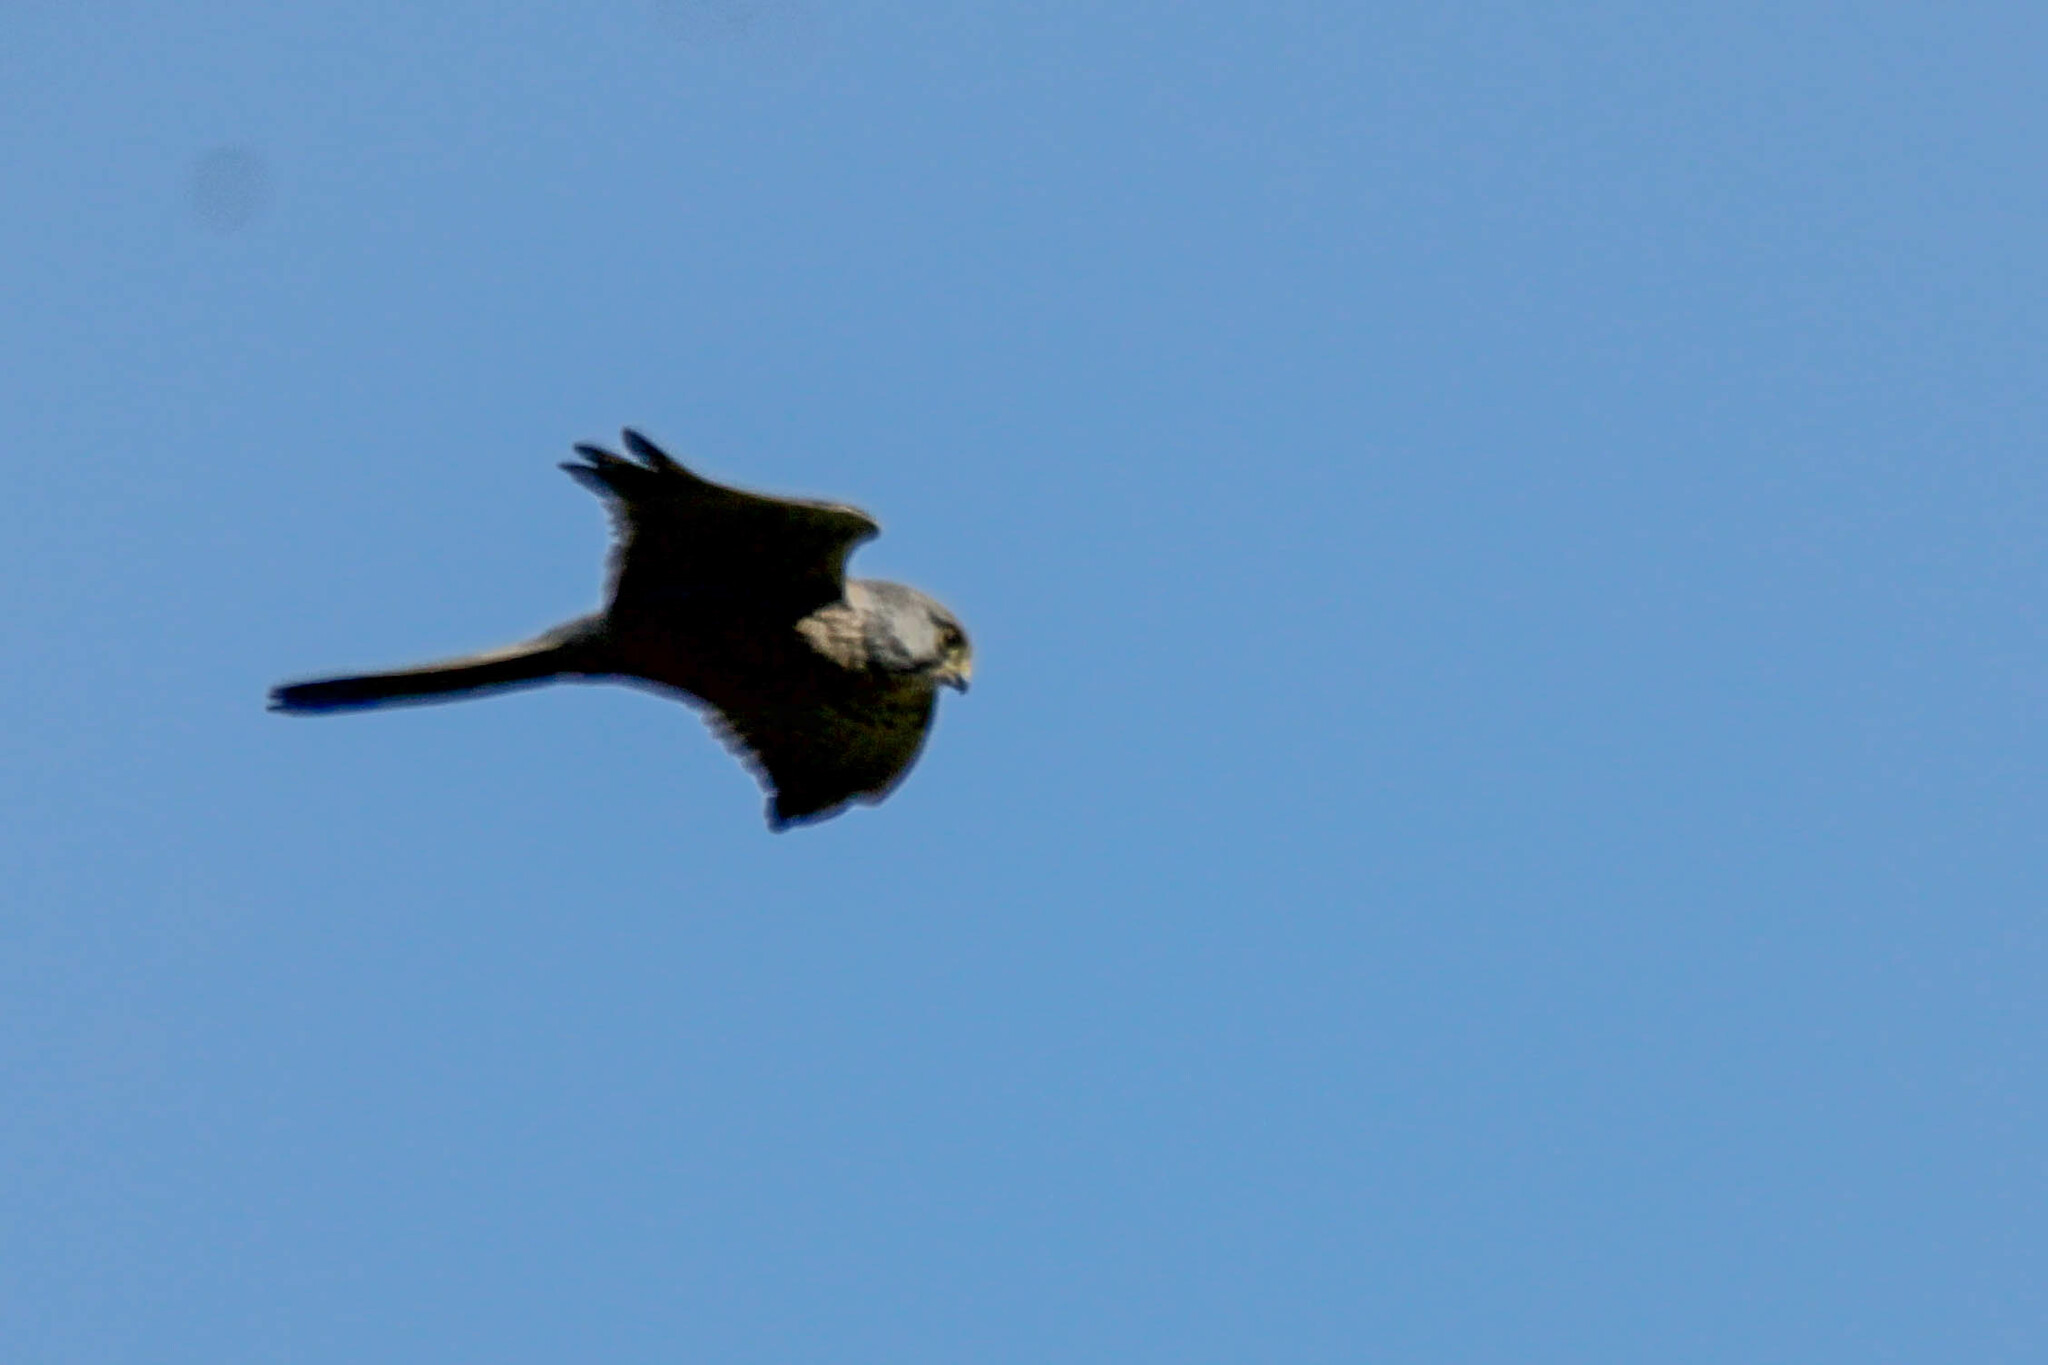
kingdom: Animalia
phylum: Chordata
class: Aves
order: Falconiformes
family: Falconidae
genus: Falco
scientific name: Falco tinnunculus
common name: Common kestrel
